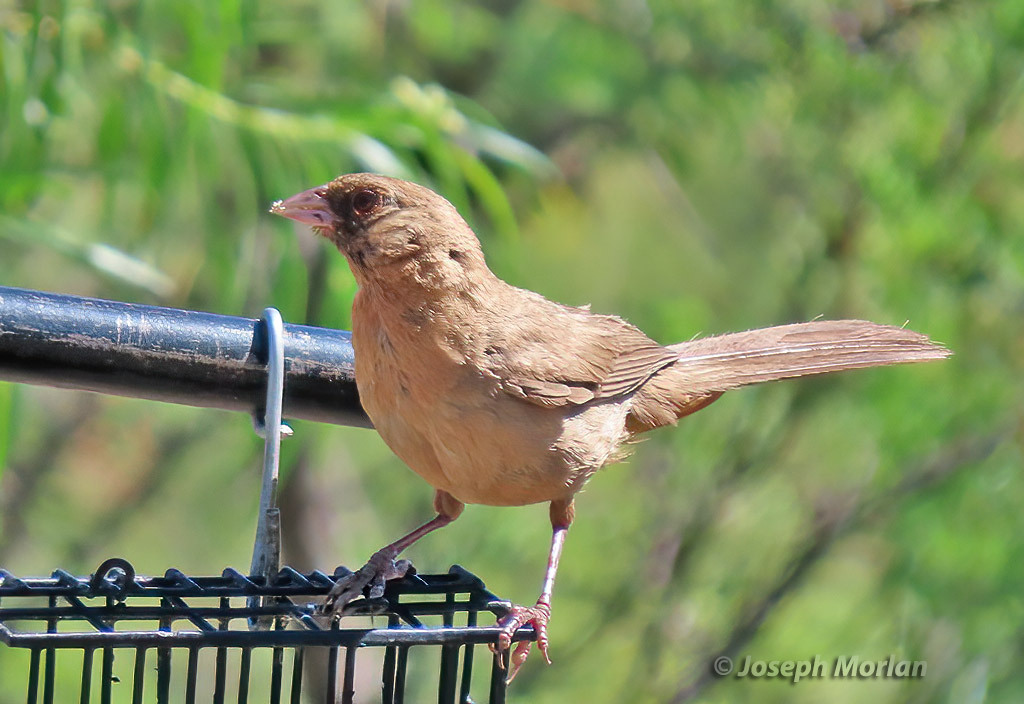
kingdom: Animalia
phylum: Chordata
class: Aves
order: Passeriformes
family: Passerellidae
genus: Melozone
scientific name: Melozone aberti
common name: Abert's towhee
